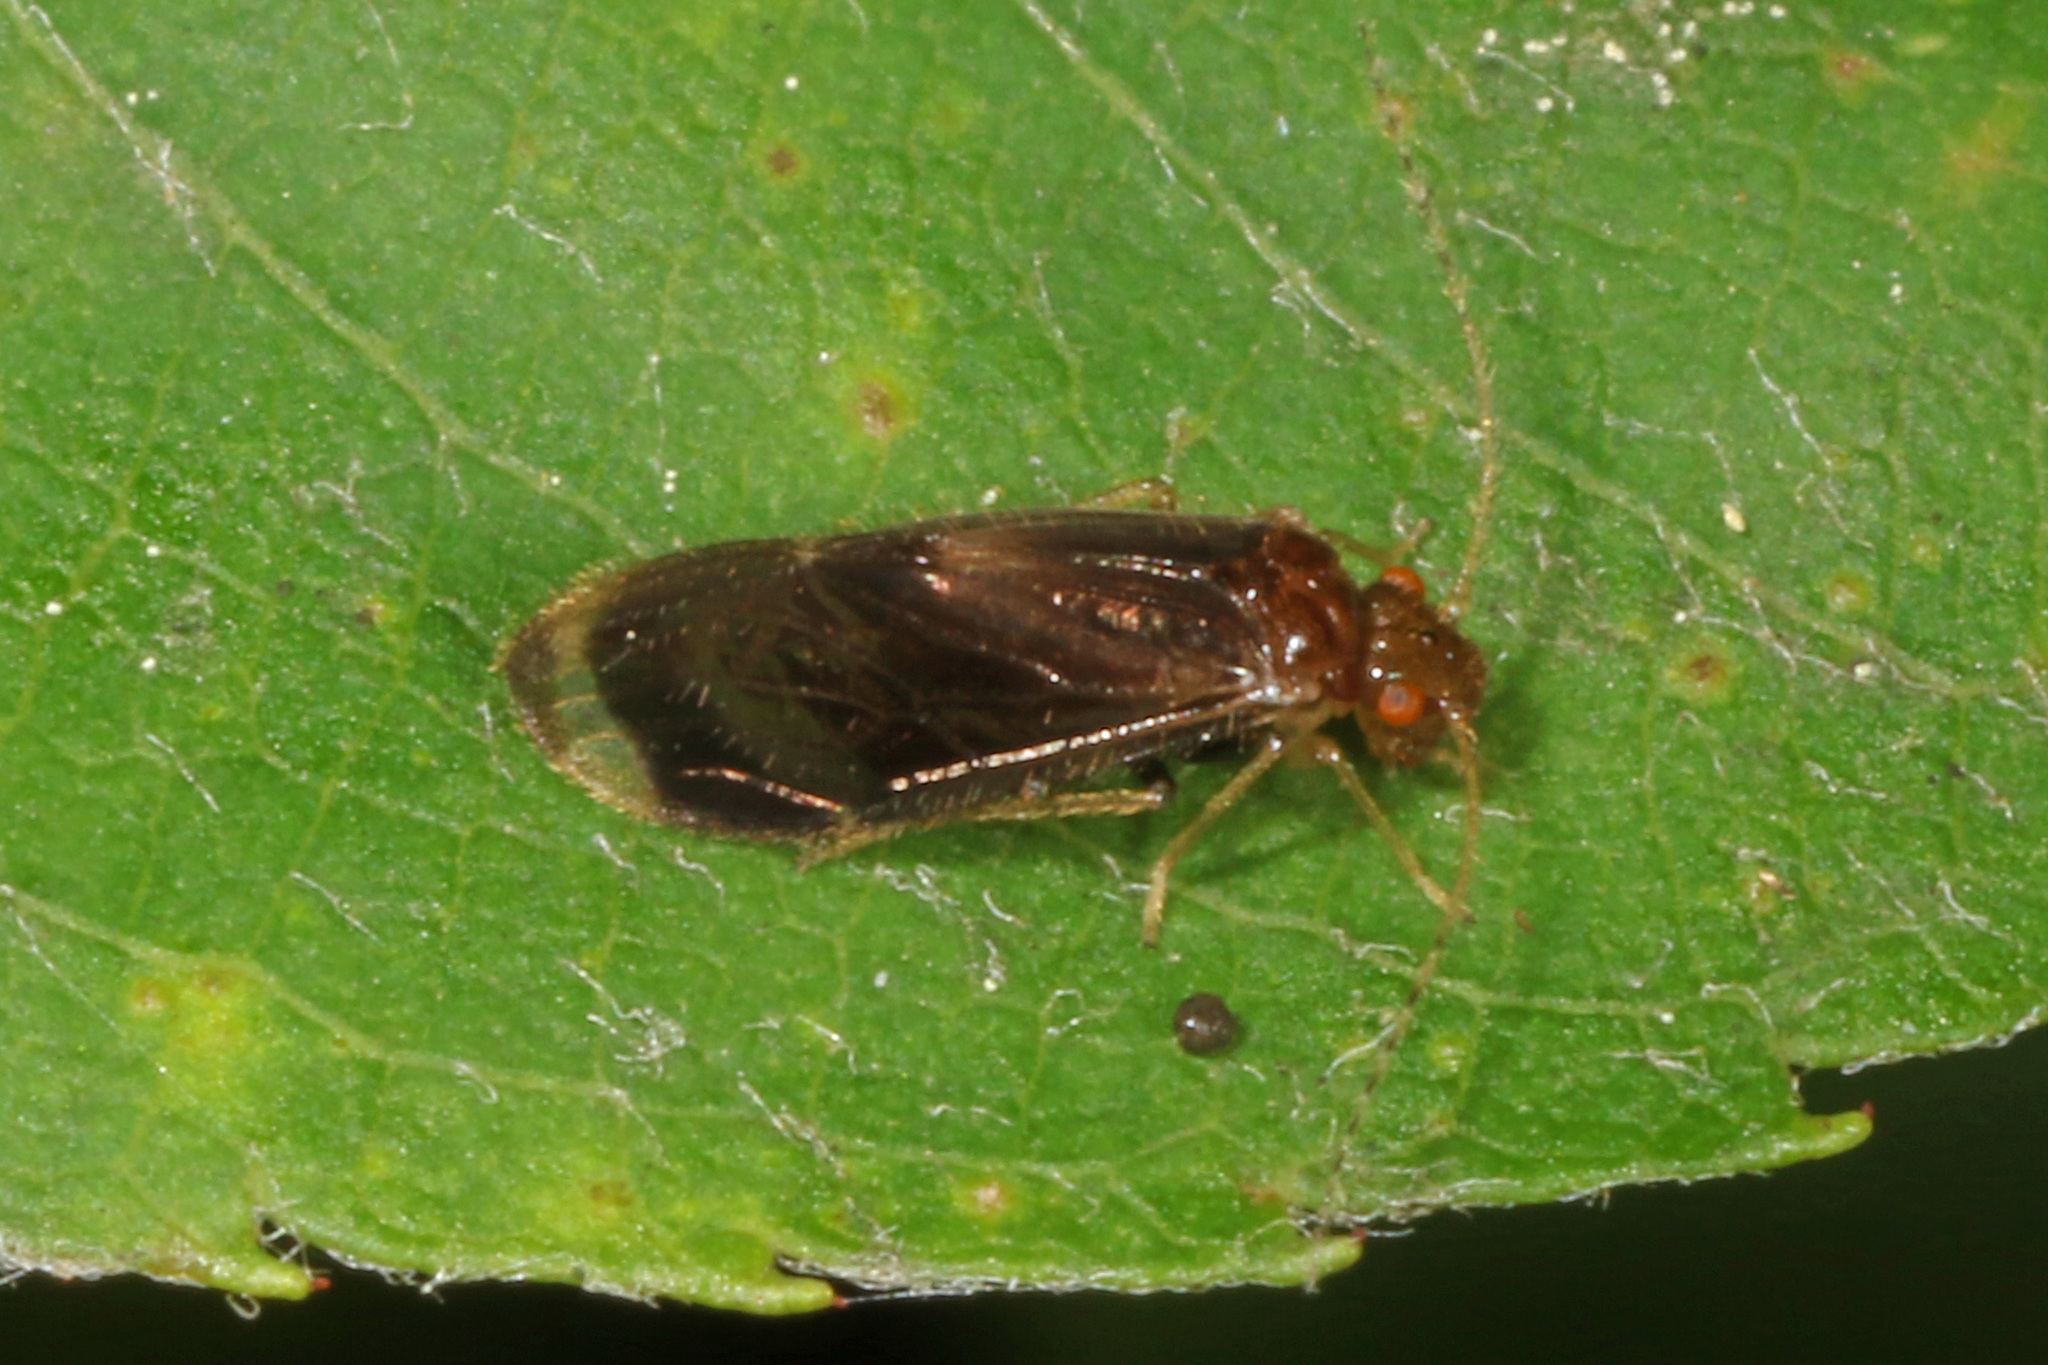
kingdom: Animalia
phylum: Arthropoda
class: Insecta
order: Psocodea
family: Amphipsocidae
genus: Polypsocus
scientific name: Polypsocus corruptus
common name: Corrupt barklouse
